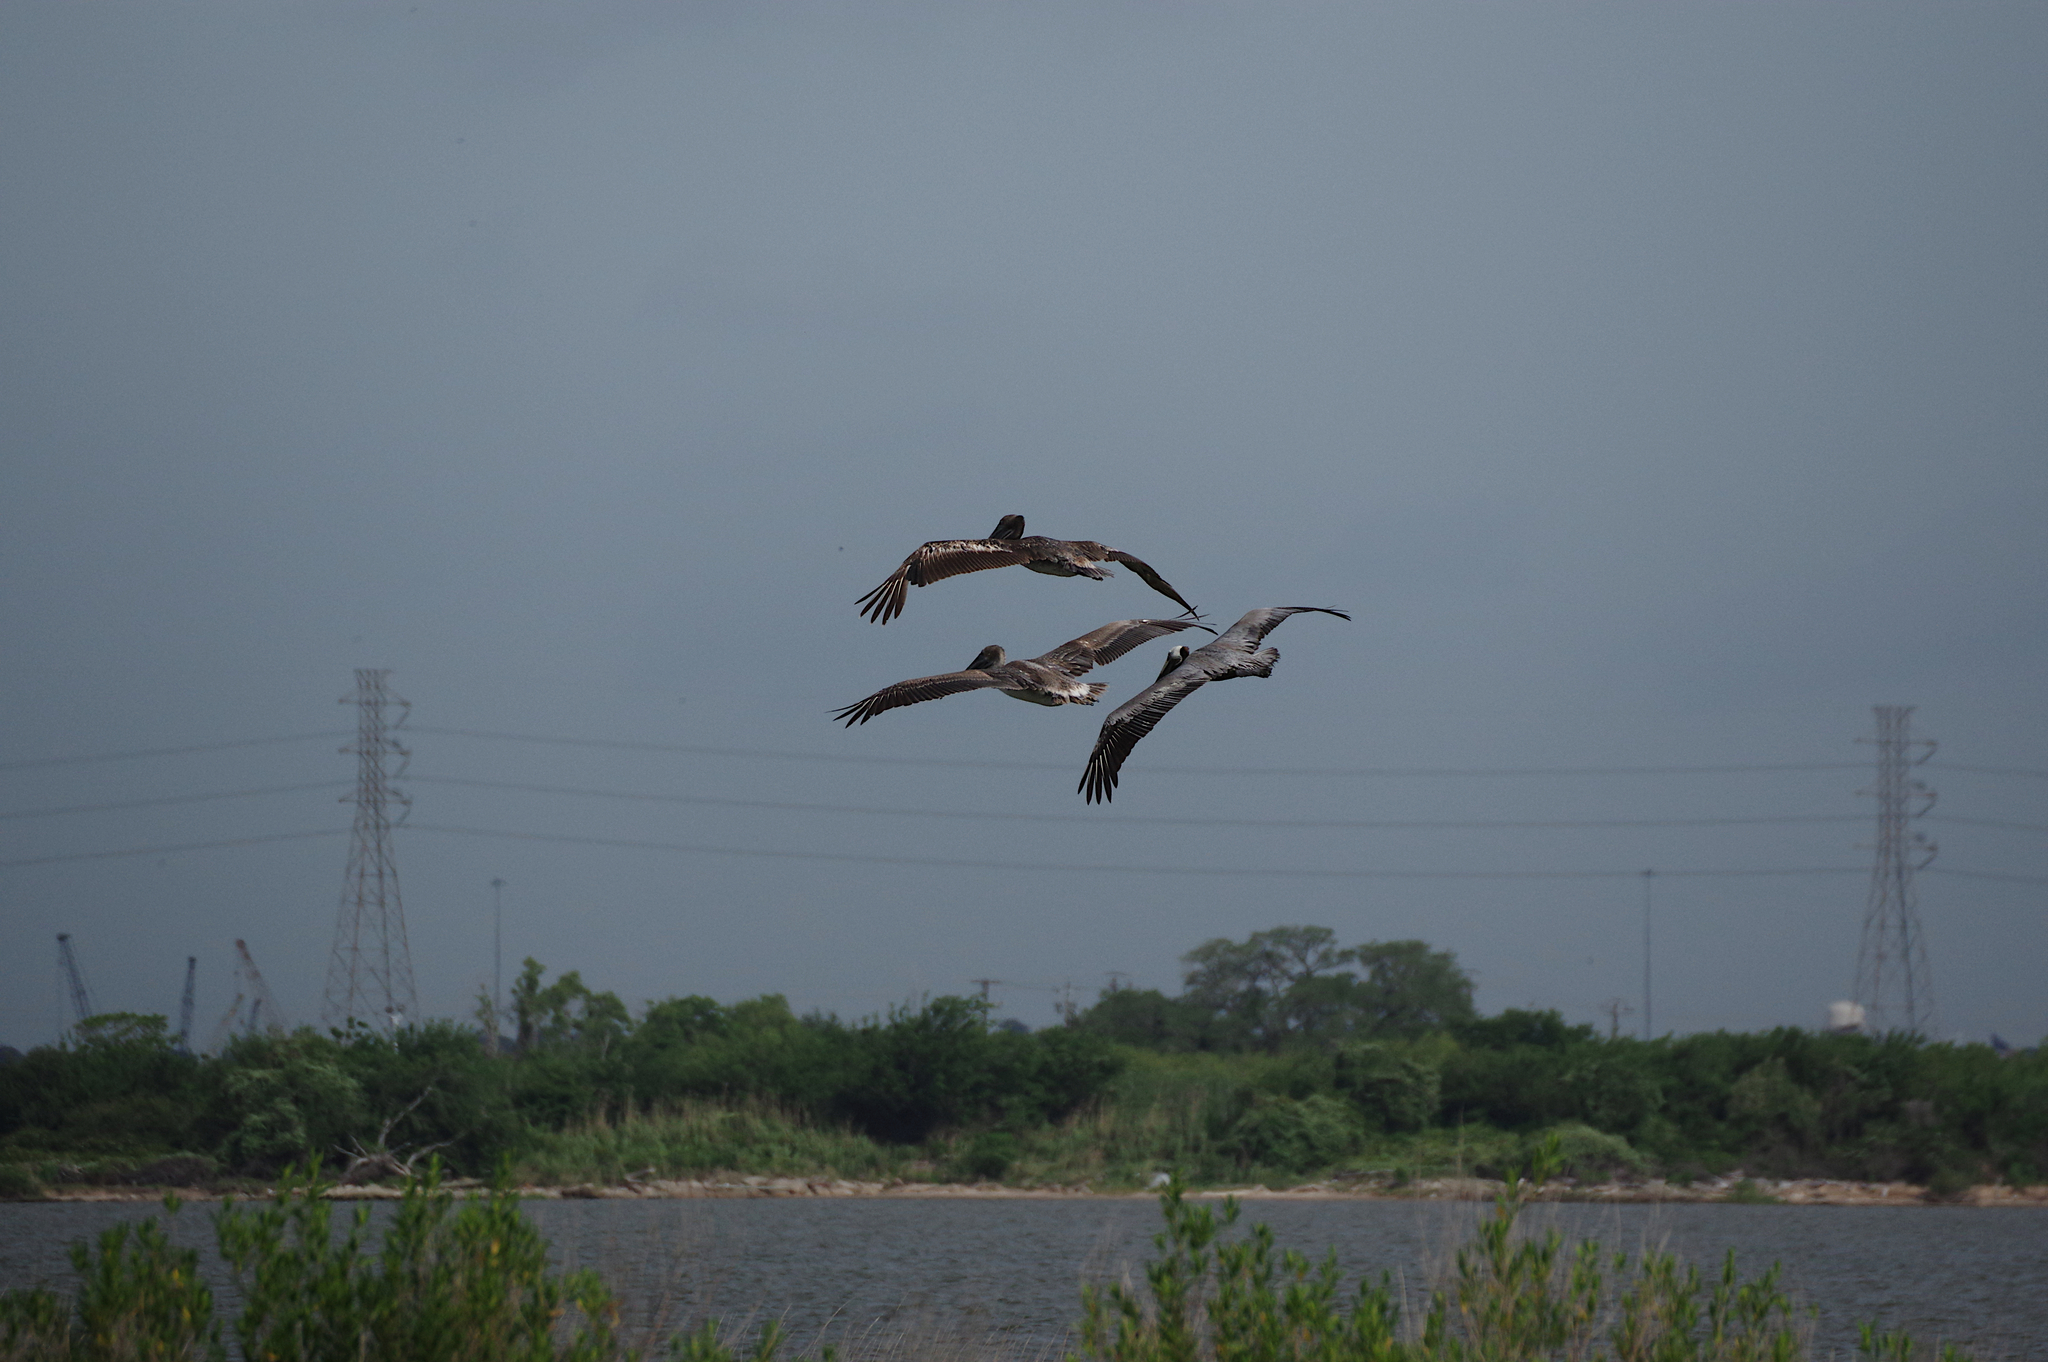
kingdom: Animalia
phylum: Chordata
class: Aves
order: Pelecaniformes
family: Pelecanidae
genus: Pelecanus
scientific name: Pelecanus occidentalis
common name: Brown pelican
